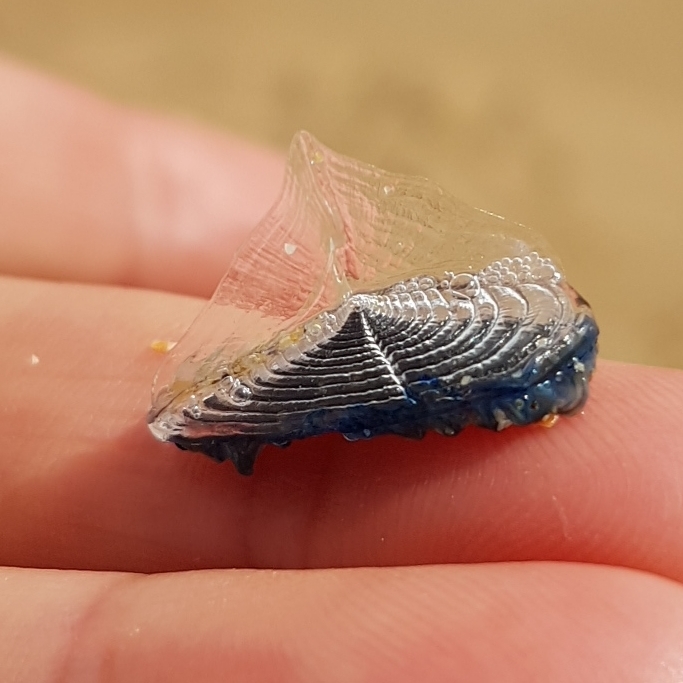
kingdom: Animalia
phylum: Cnidaria
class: Hydrozoa
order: Anthoathecata
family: Porpitidae
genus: Velella
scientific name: Velella velella
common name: By-the-wind-sailor
